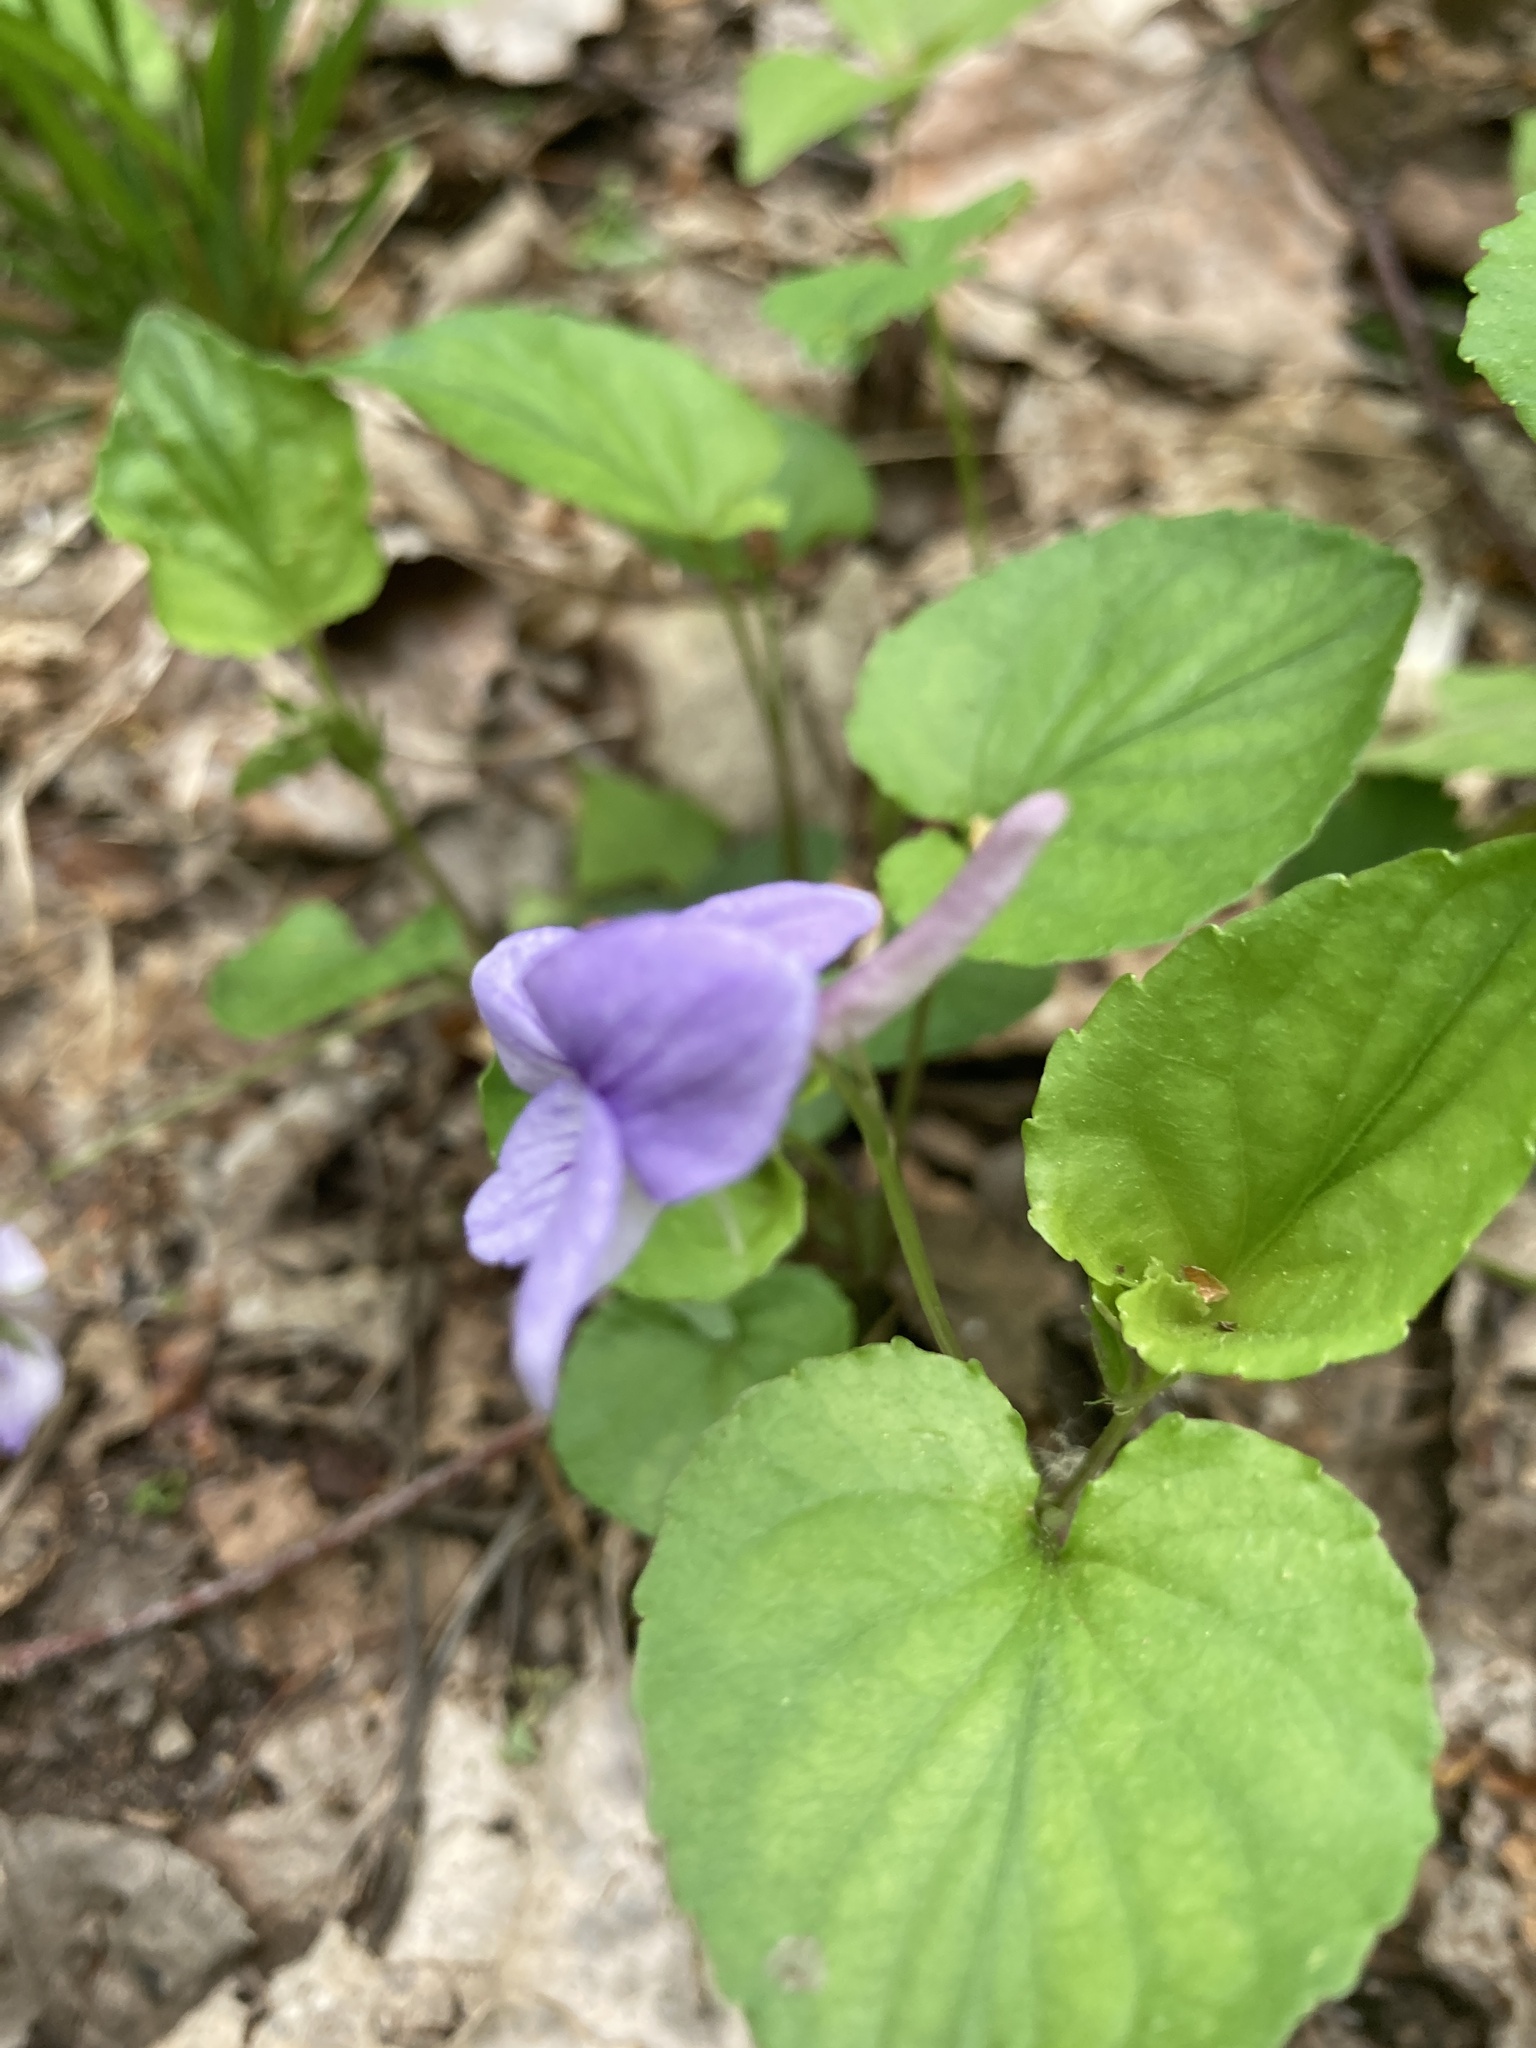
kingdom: Plantae
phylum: Tracheophyta
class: Magnoliopsida
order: Malpighiales
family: Violaceae
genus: Viola
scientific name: Viola rostrata
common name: Long-spur violet
